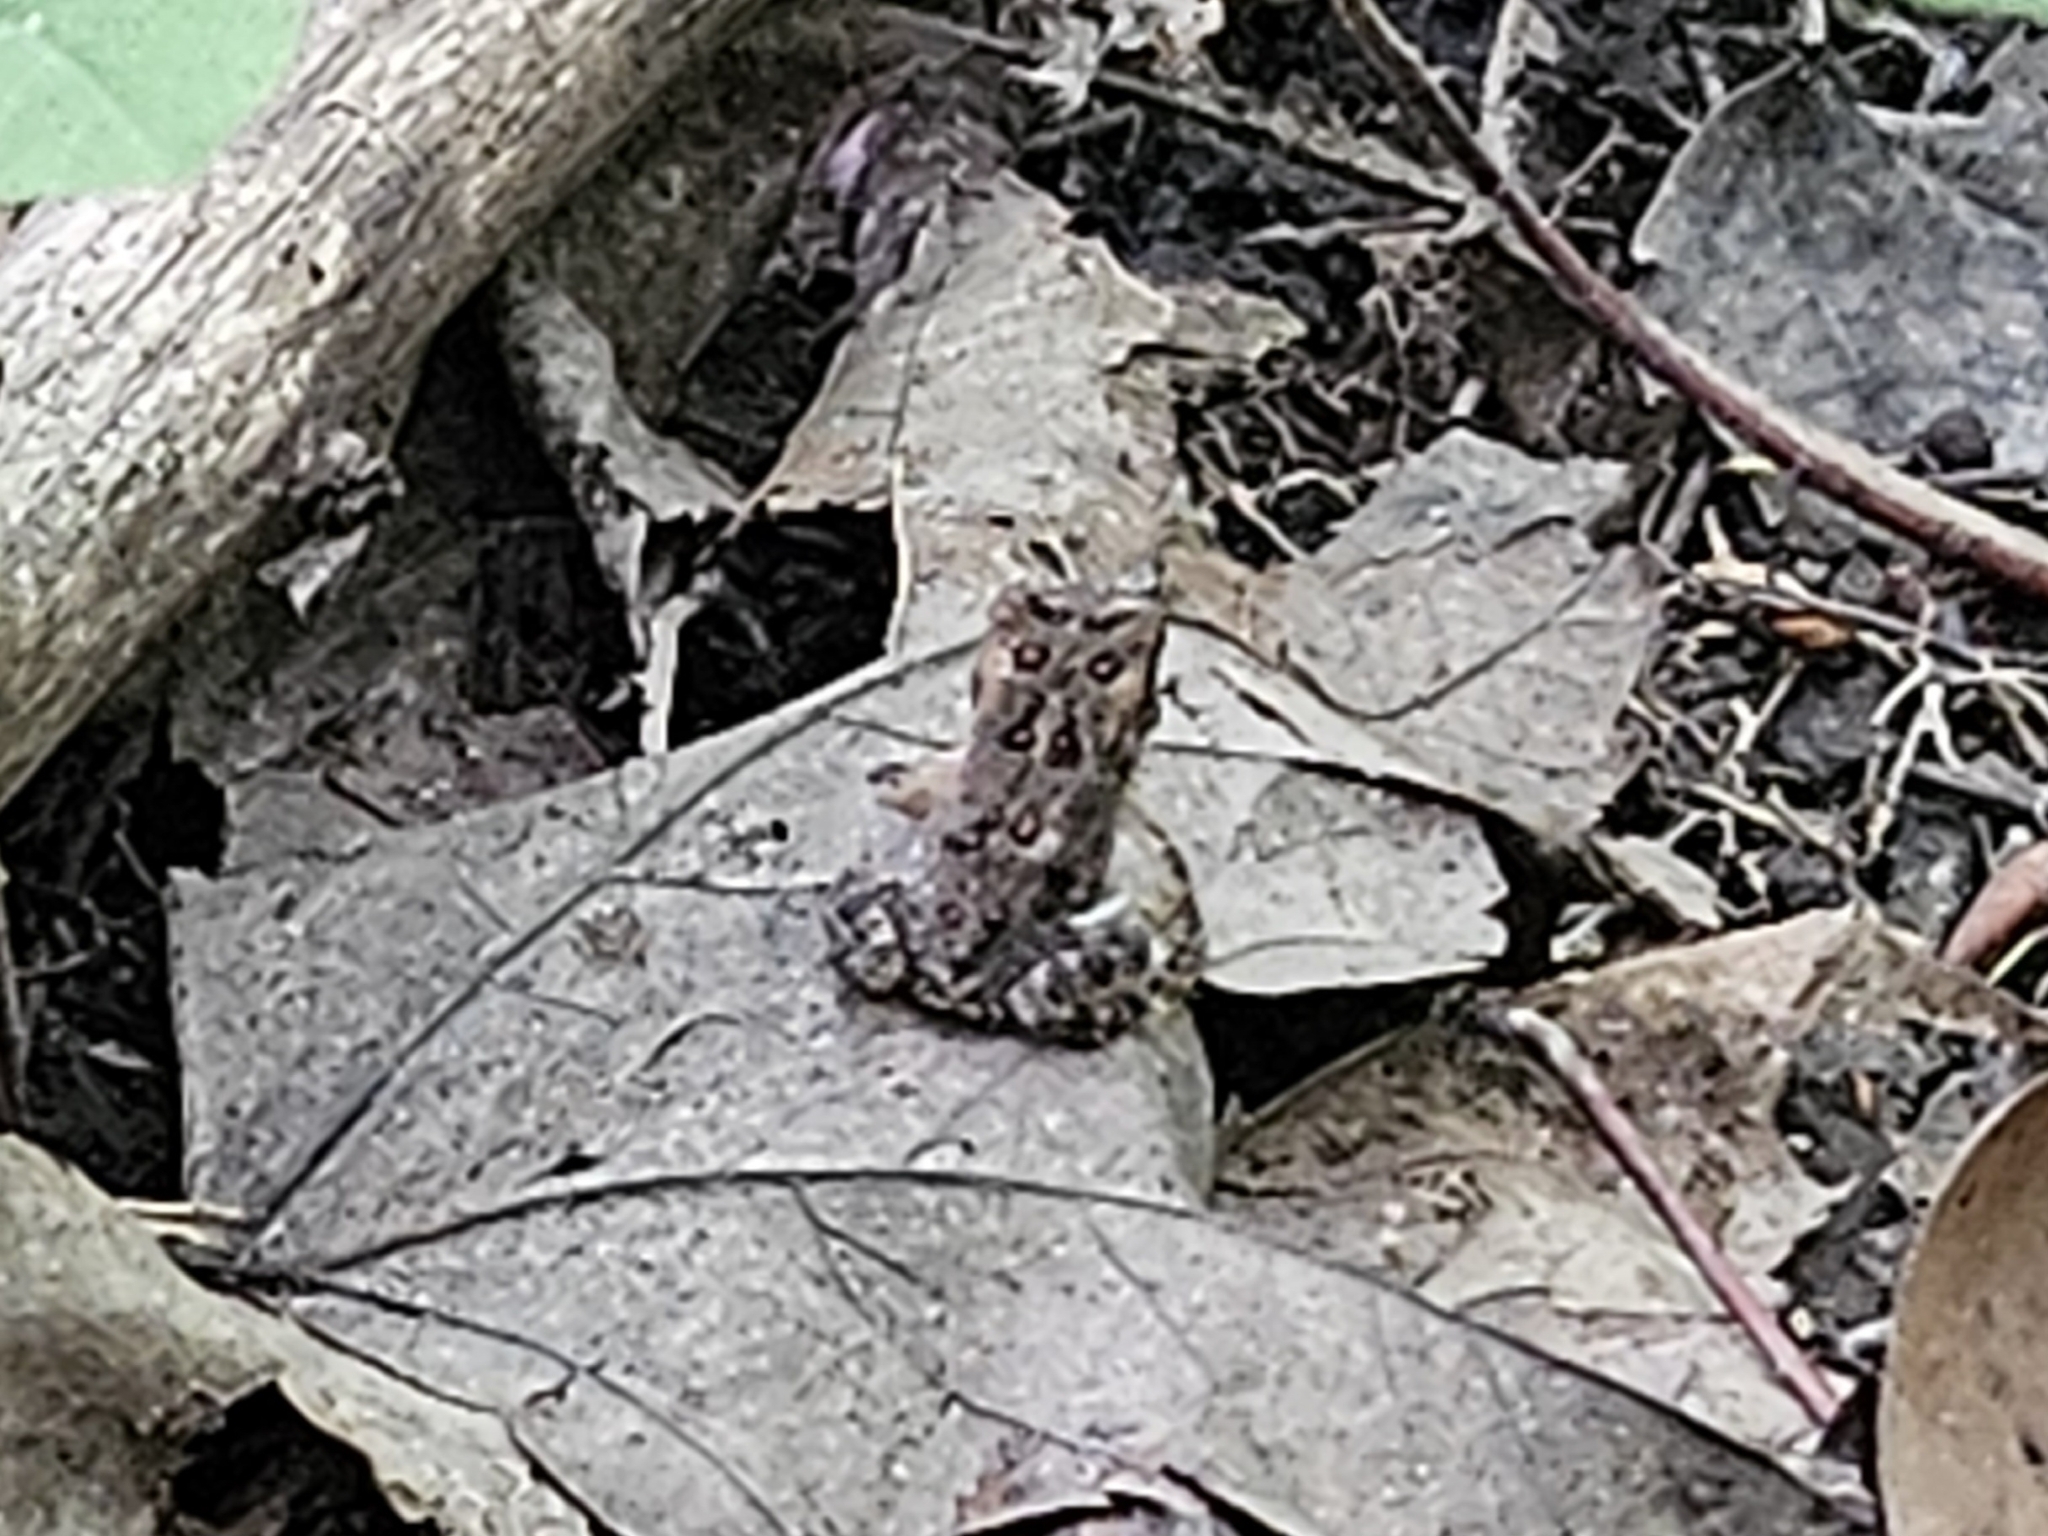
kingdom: Animalia
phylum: Chordata
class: Amphibia
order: Anura
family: Bufonidae
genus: Anaxyrus
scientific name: Anaxyrus americanus
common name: American toad
